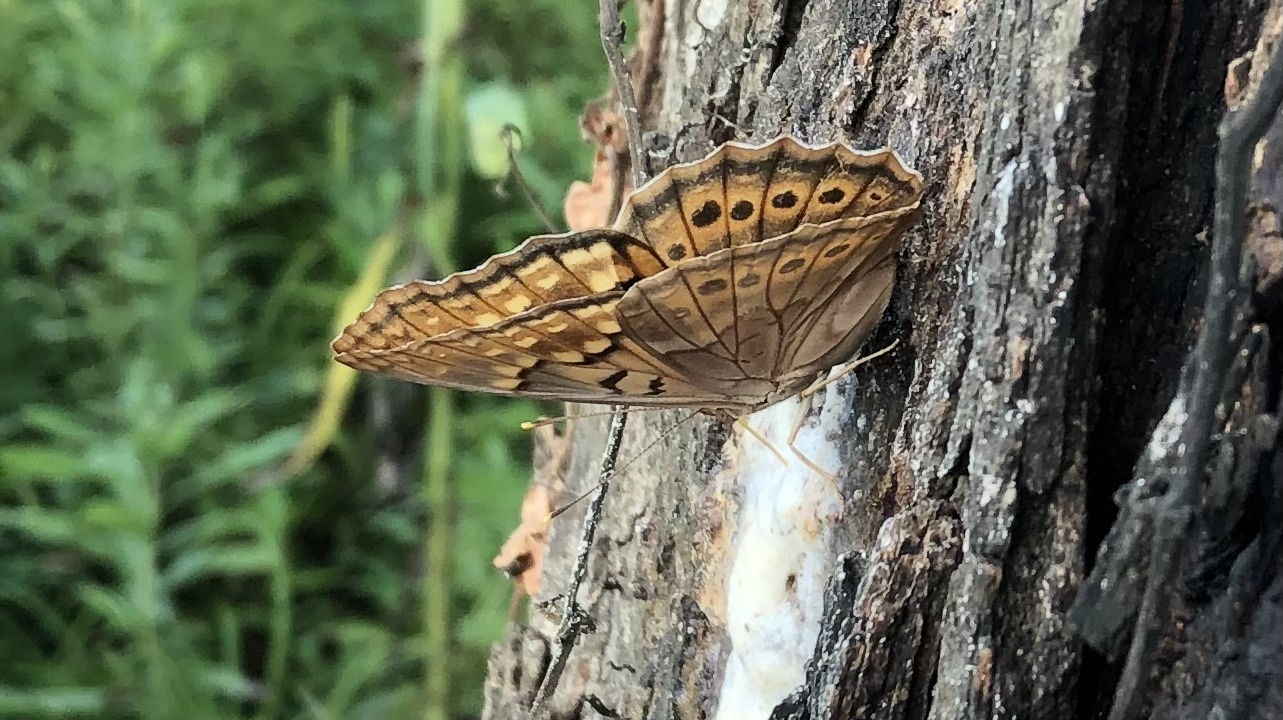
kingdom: Animalia
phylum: Arthropoda
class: Insecta
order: Lepidoptera
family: Nymphalidae
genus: Asterocampa
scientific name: Asterocampa clyton
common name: Tawny emperor
